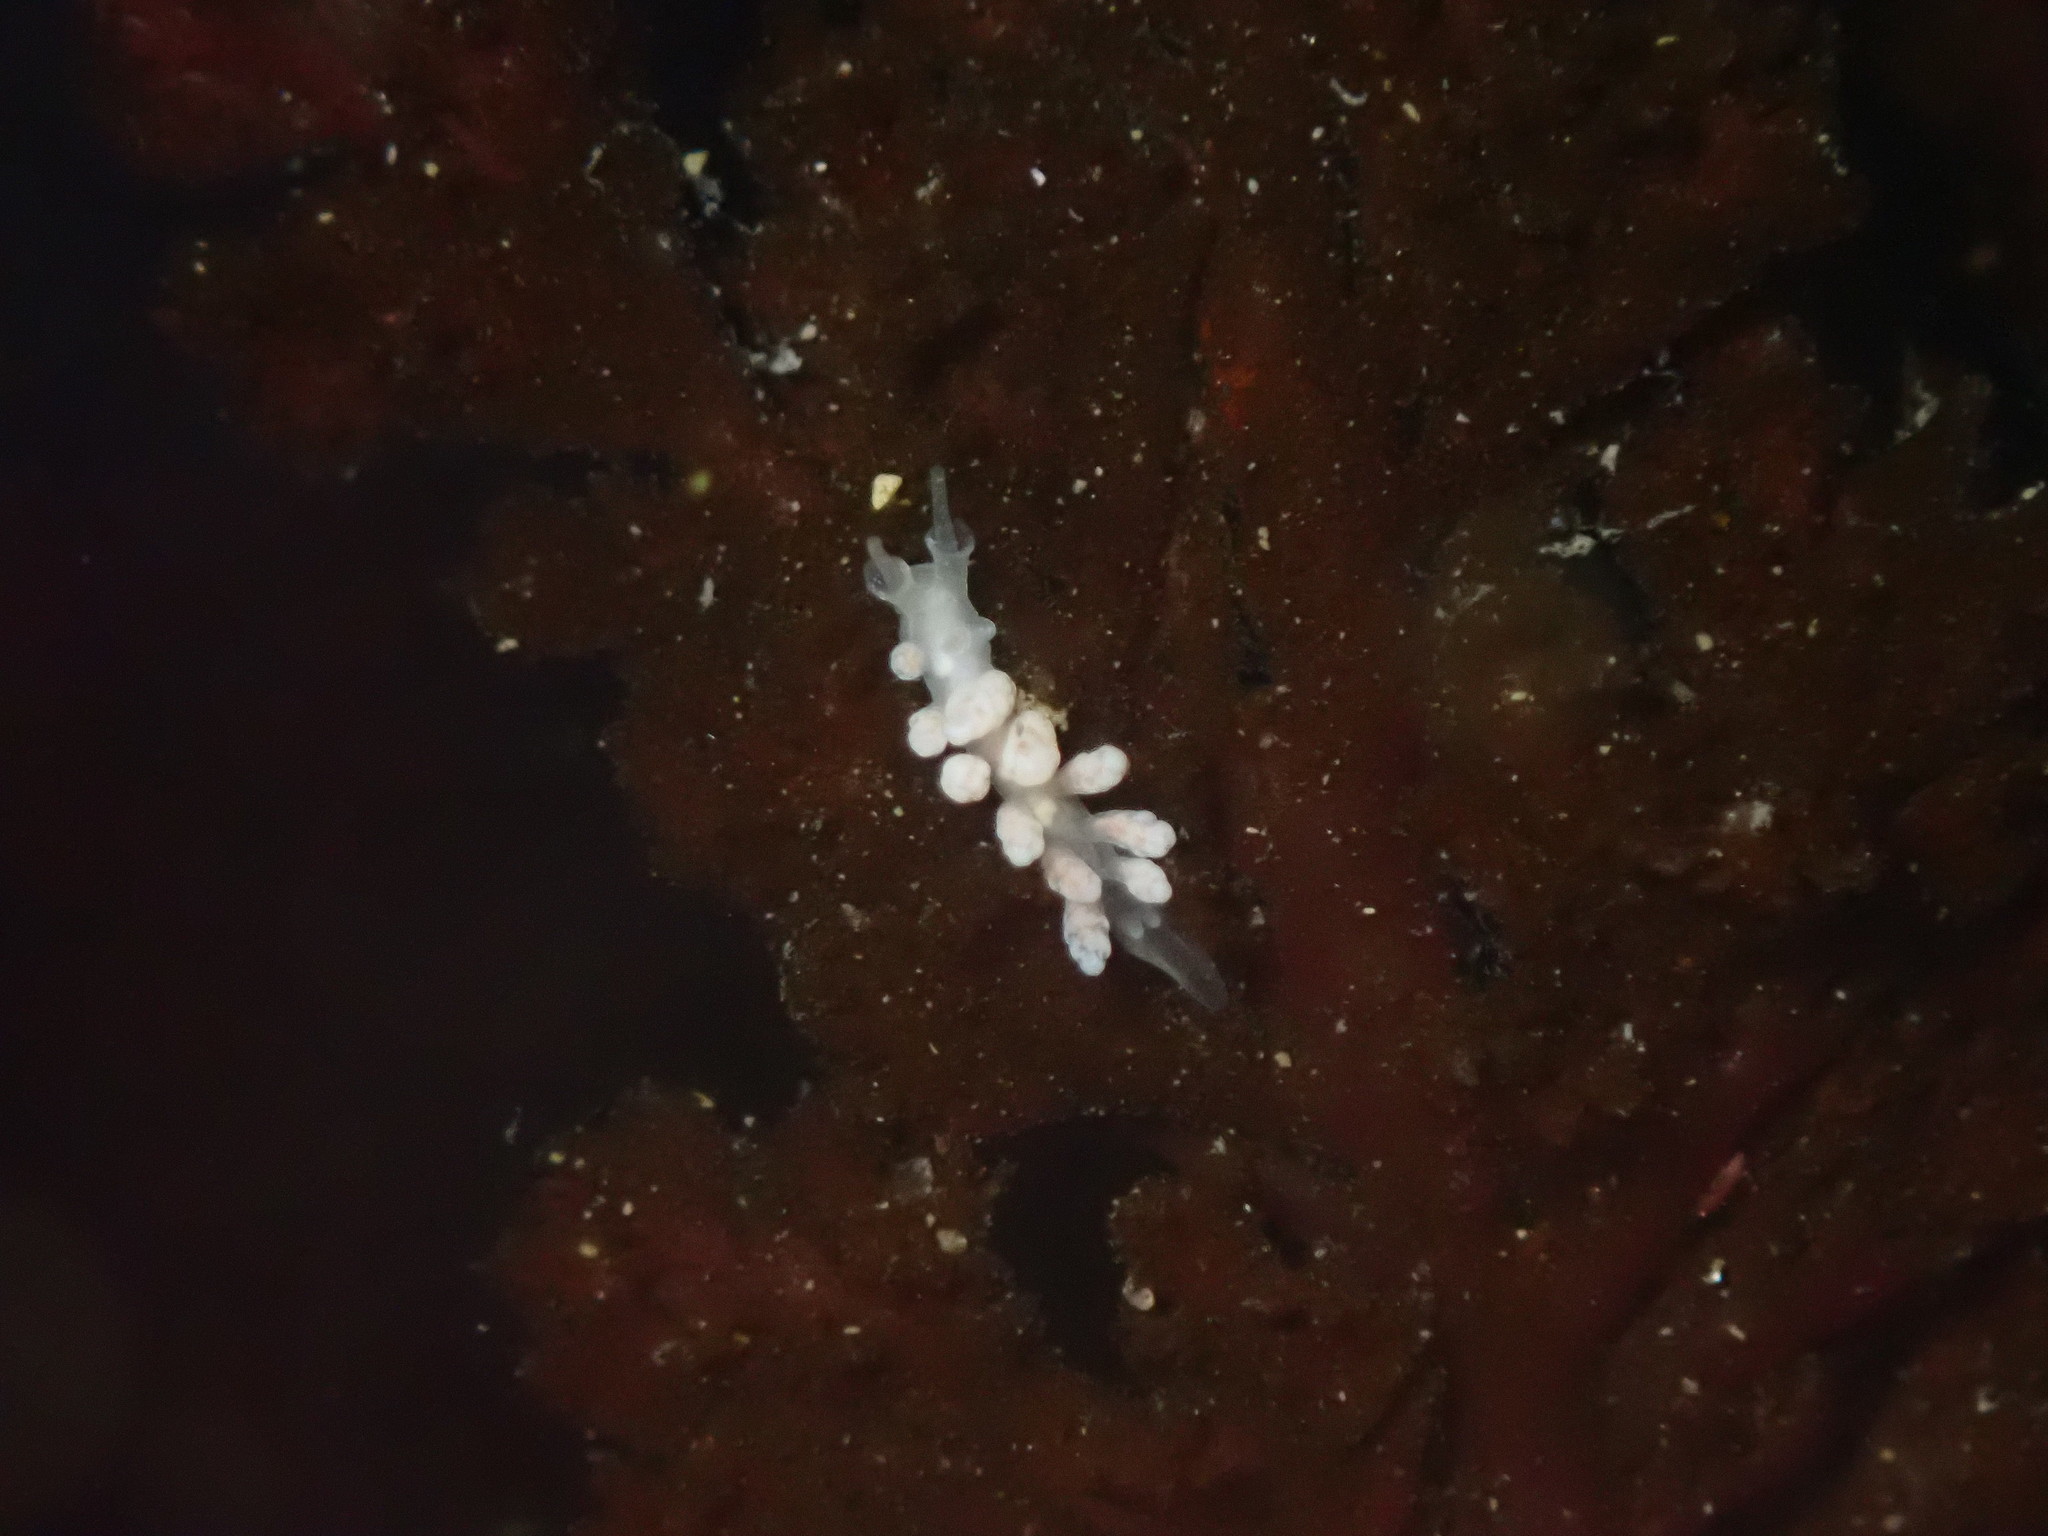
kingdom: Animalia
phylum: Mollusca
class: Gastropoda
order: Nudibranchia
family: Dotidae
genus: Doto
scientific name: Doto amyra
